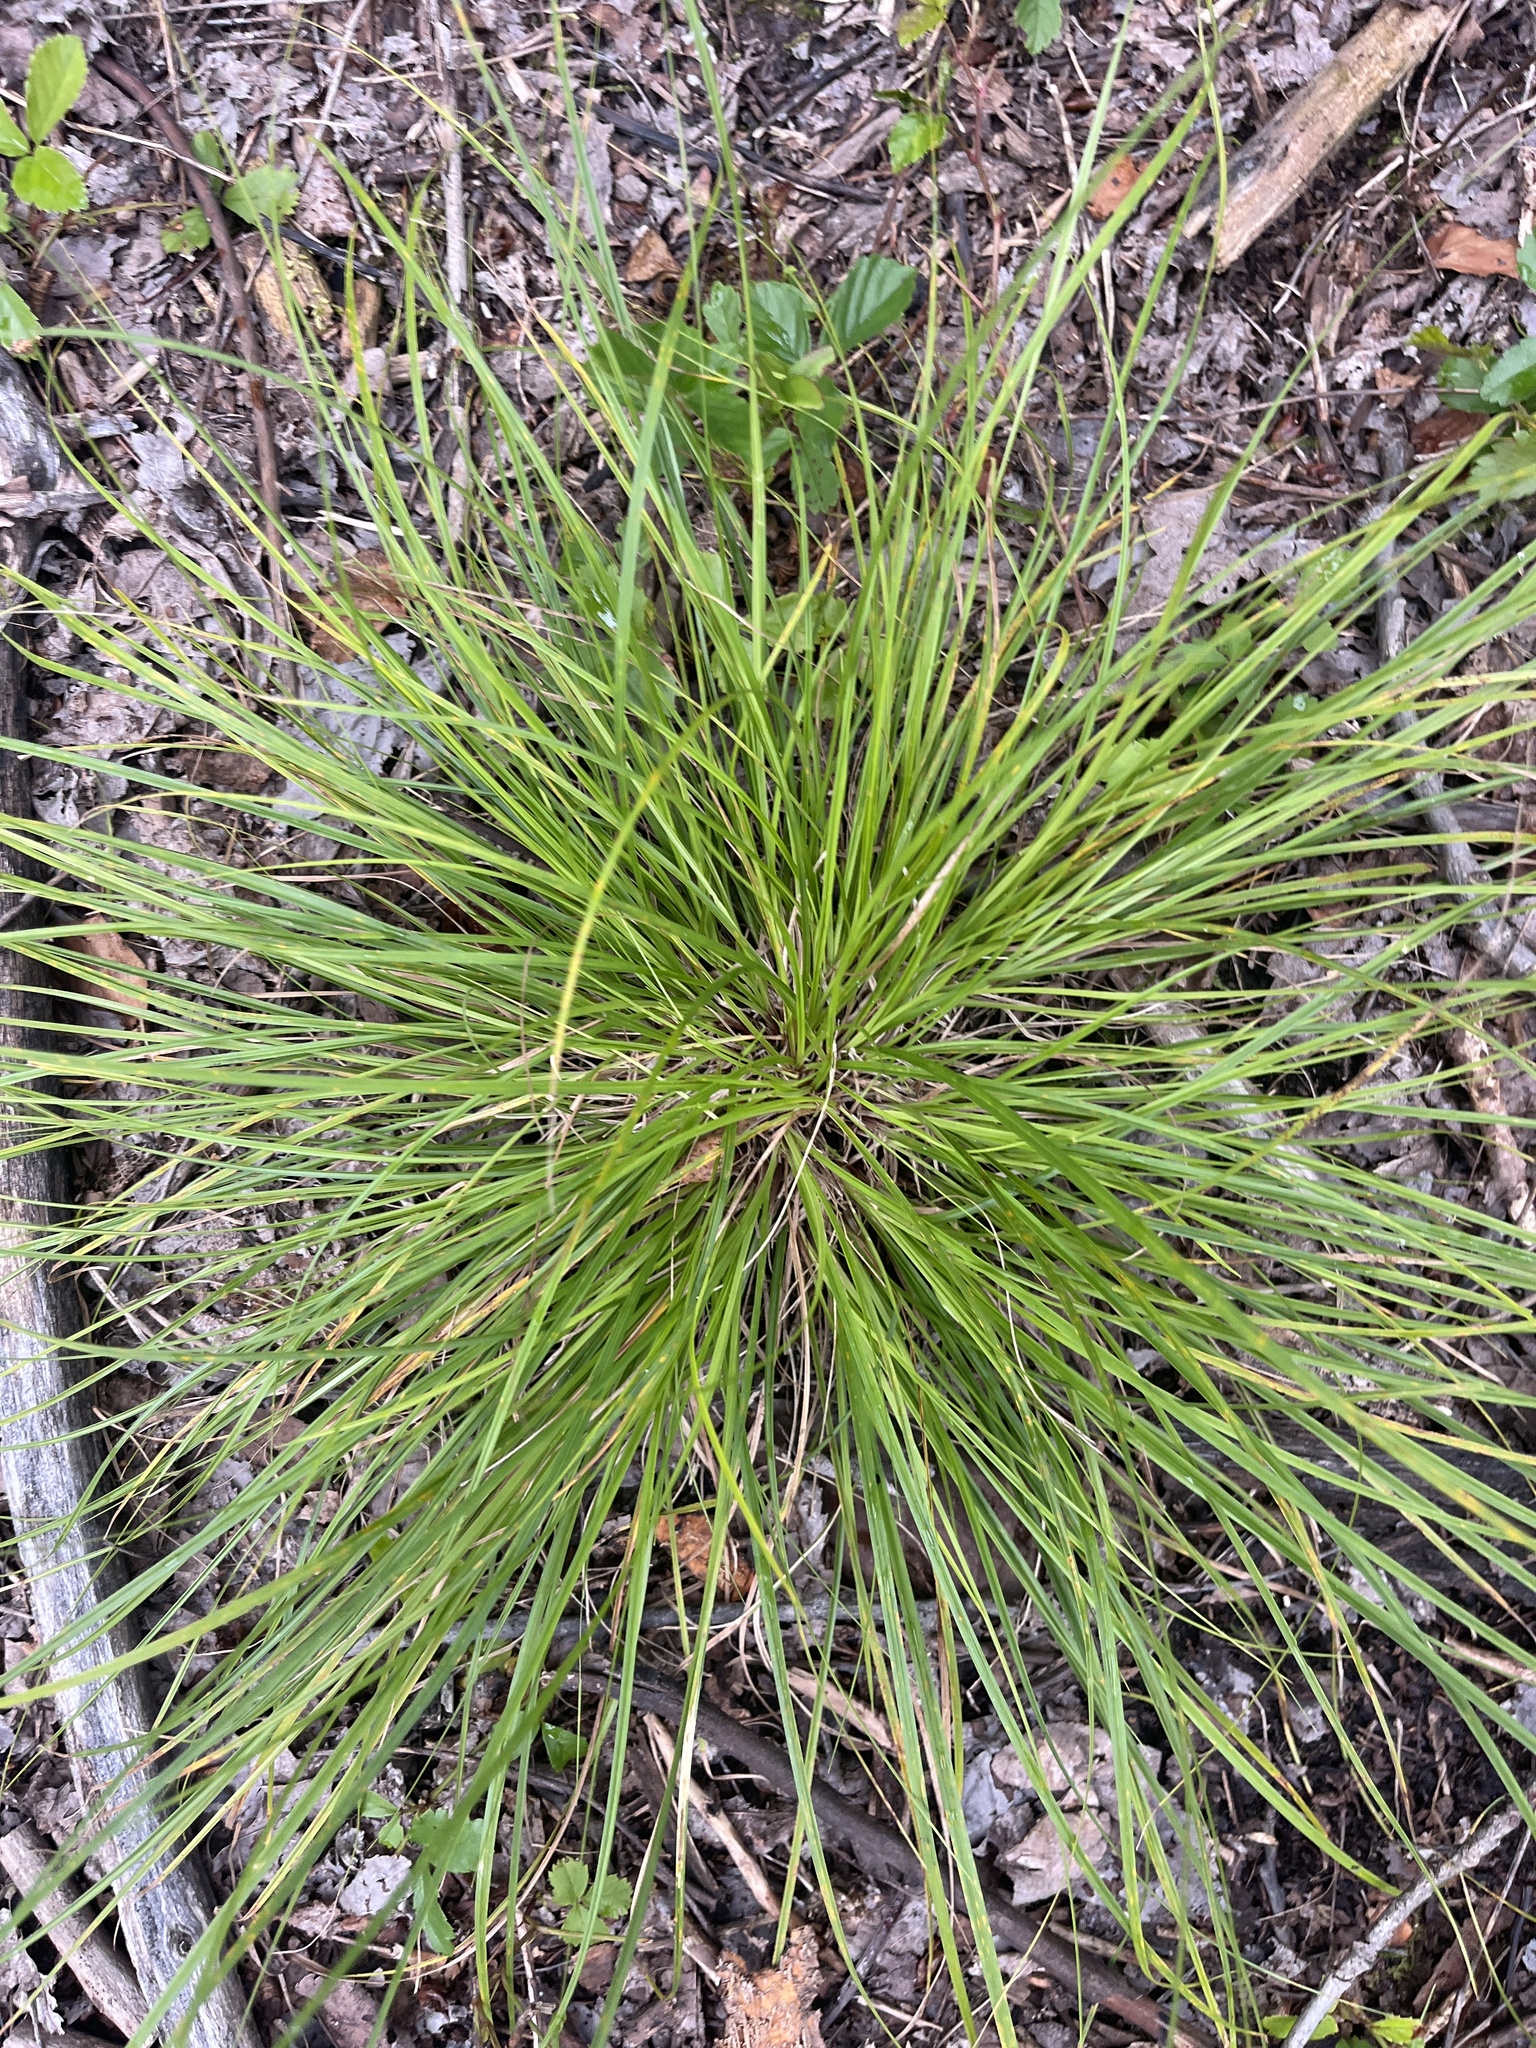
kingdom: Plantae
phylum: Tracheophyta
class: Liliopsida
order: Poales
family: Cyperaceae
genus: Carex
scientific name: Carex
